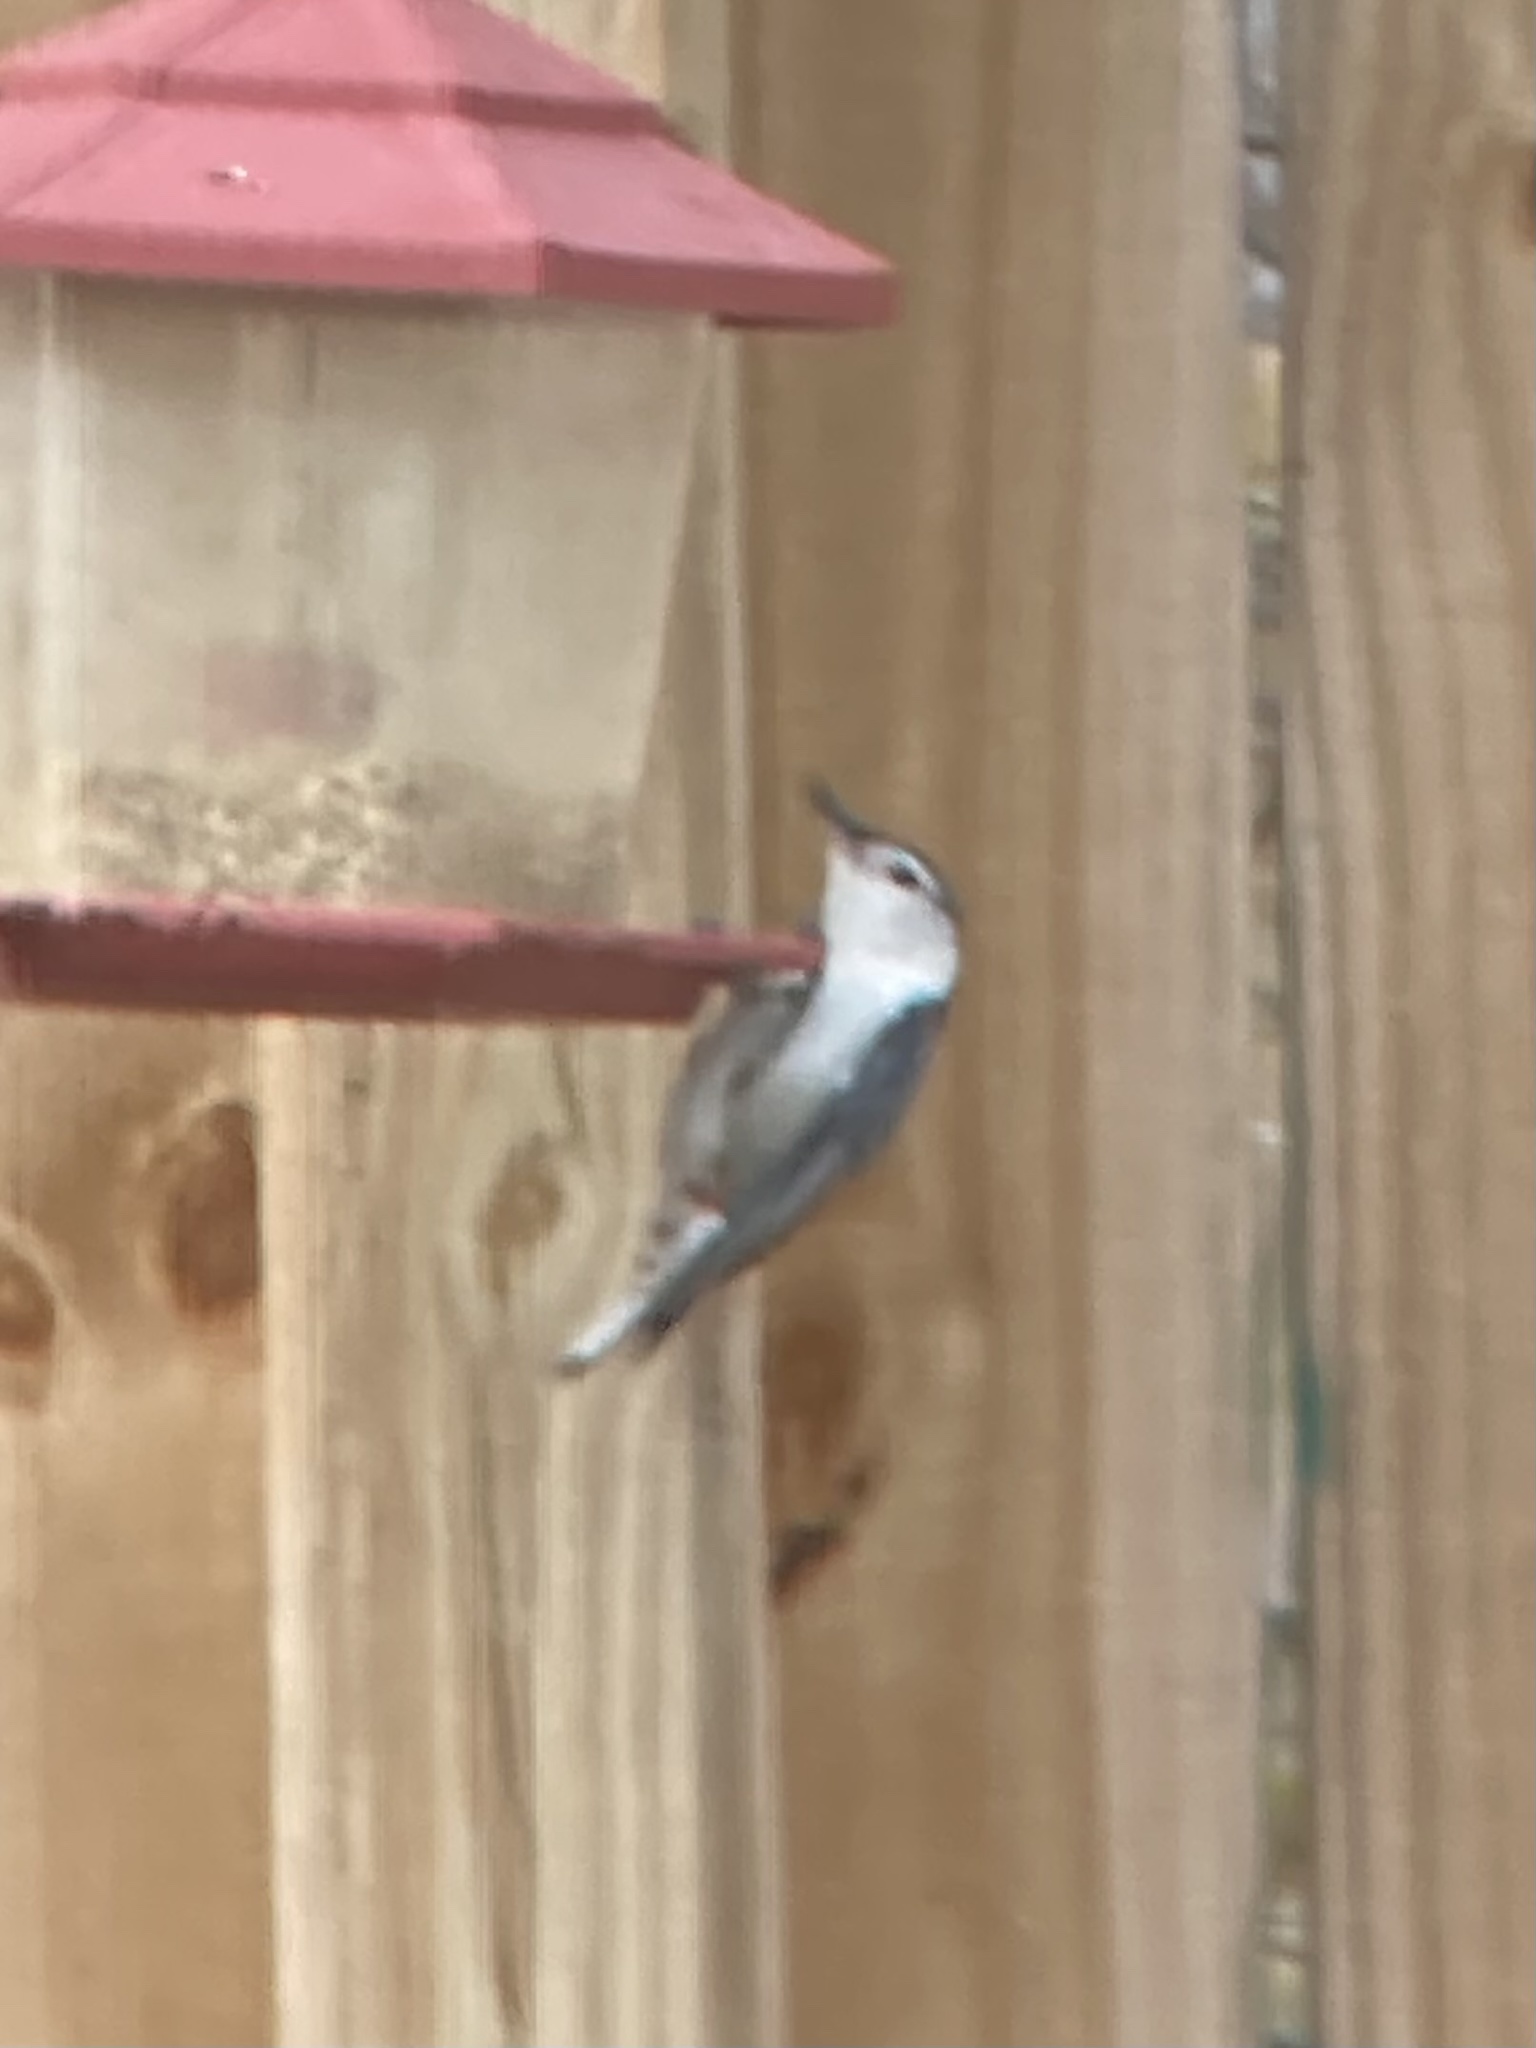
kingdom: Animalia
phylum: Chordata
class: Aves
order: Passeriformes
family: Sittidae
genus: Sitta
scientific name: Sitta carolinensis
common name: White-breasted nuthatch
